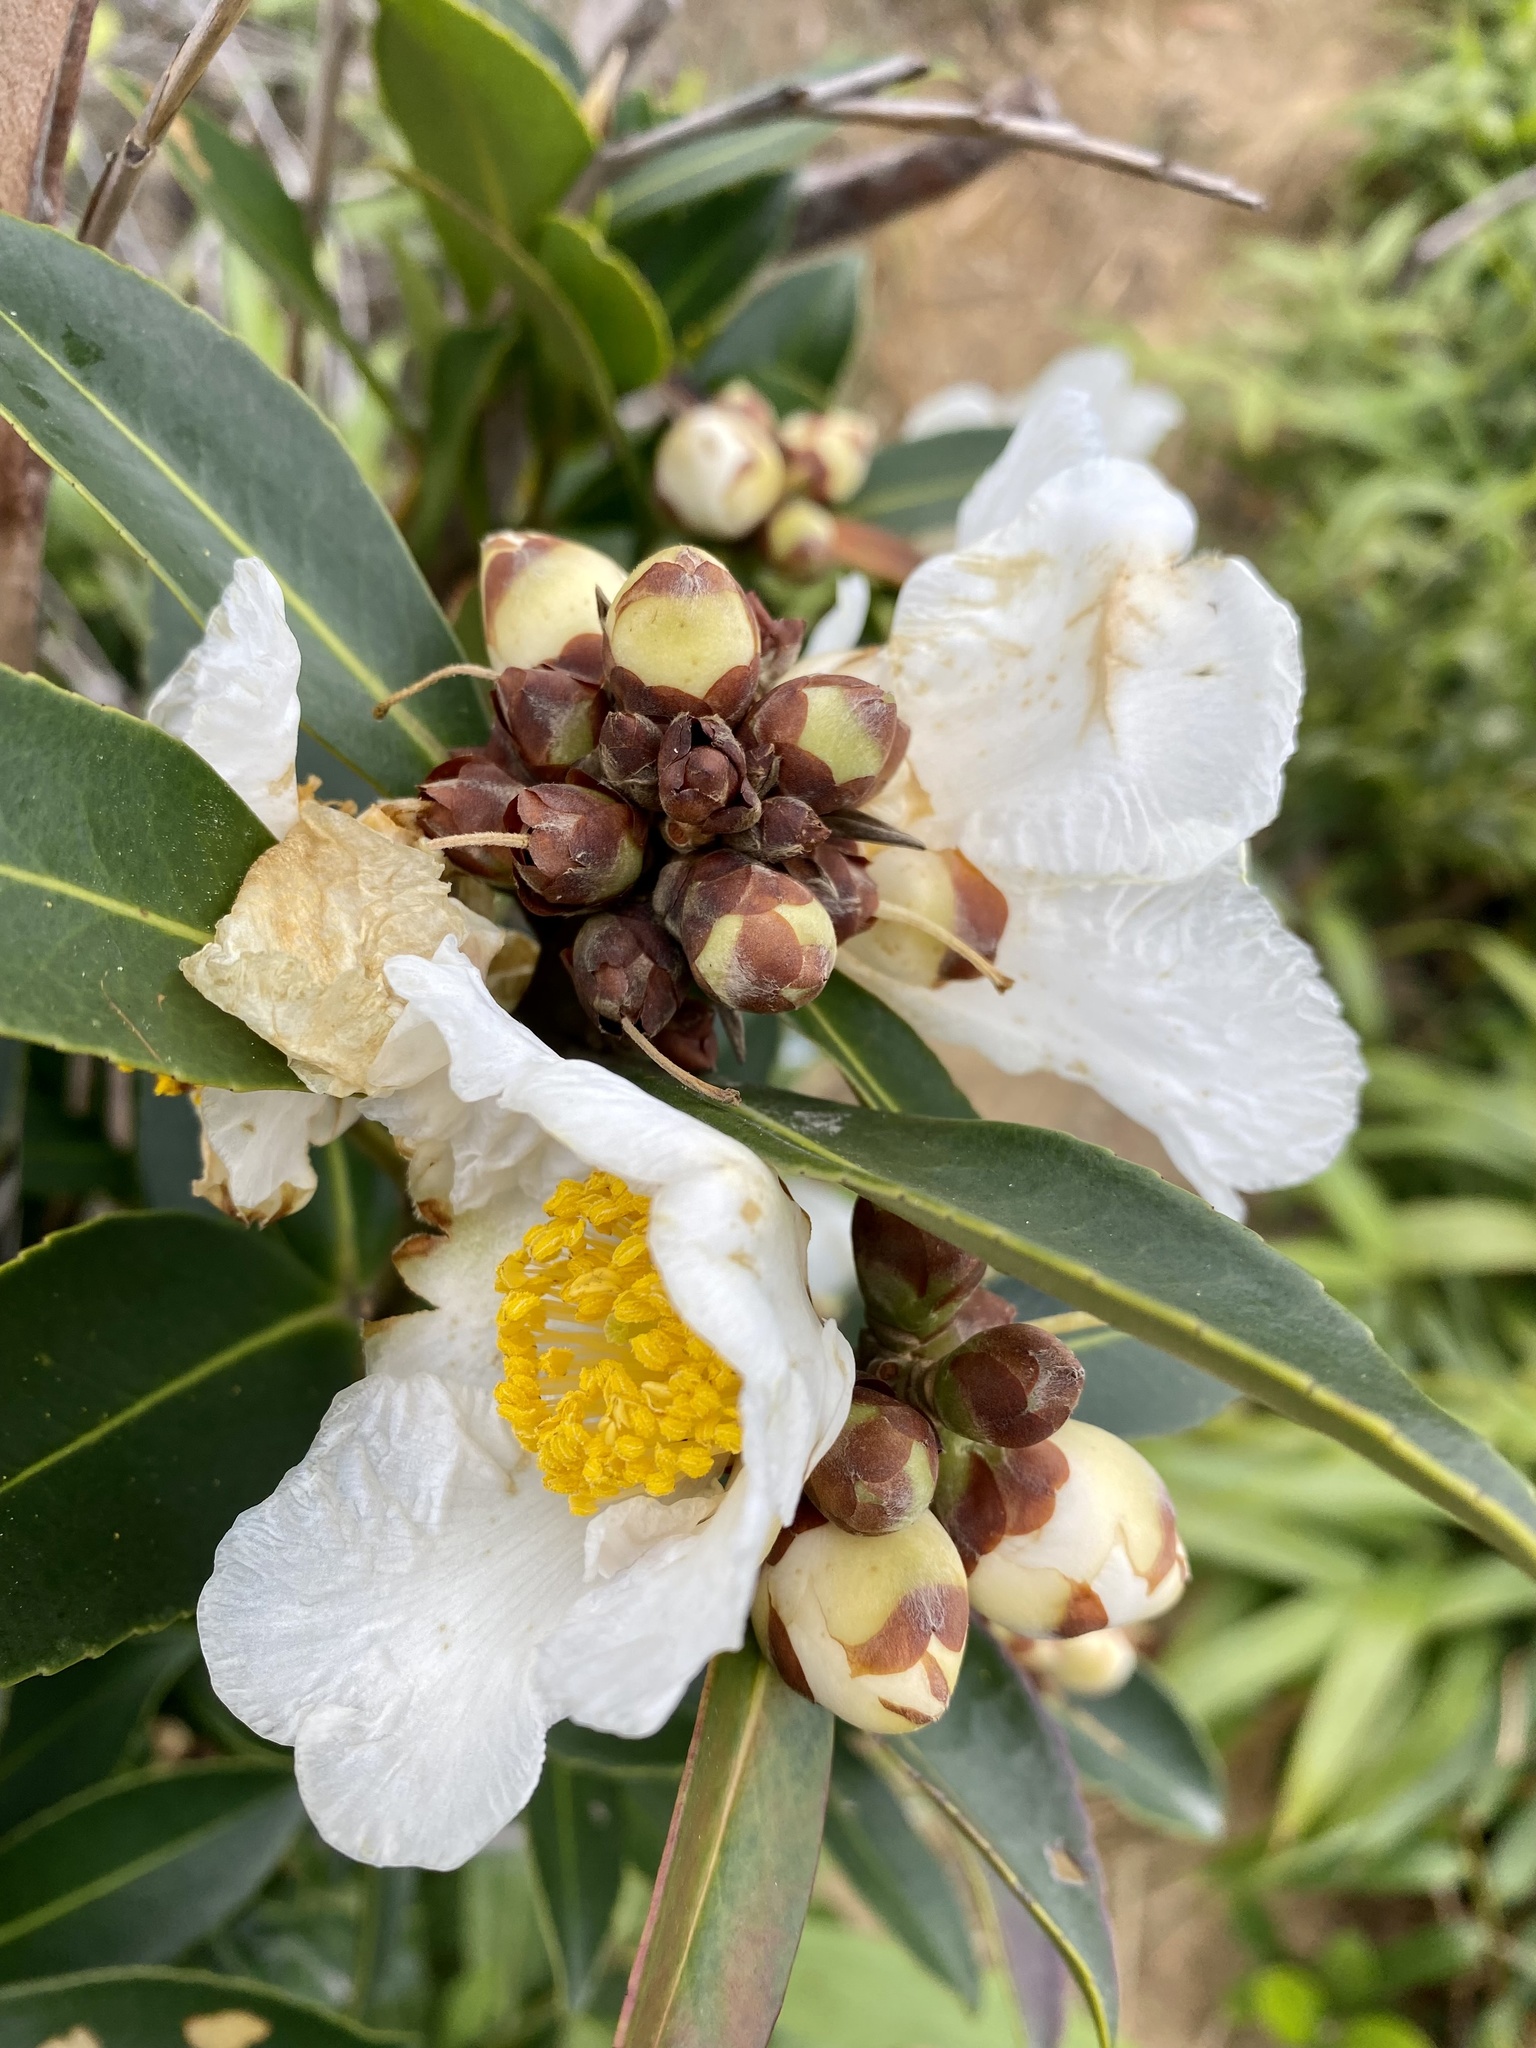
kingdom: Plantae
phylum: Tracheophyta
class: Magnoliopsida
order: Ericales
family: Theaceae
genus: Polyspora
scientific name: Polyspora axillaris
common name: Fried egg tree
